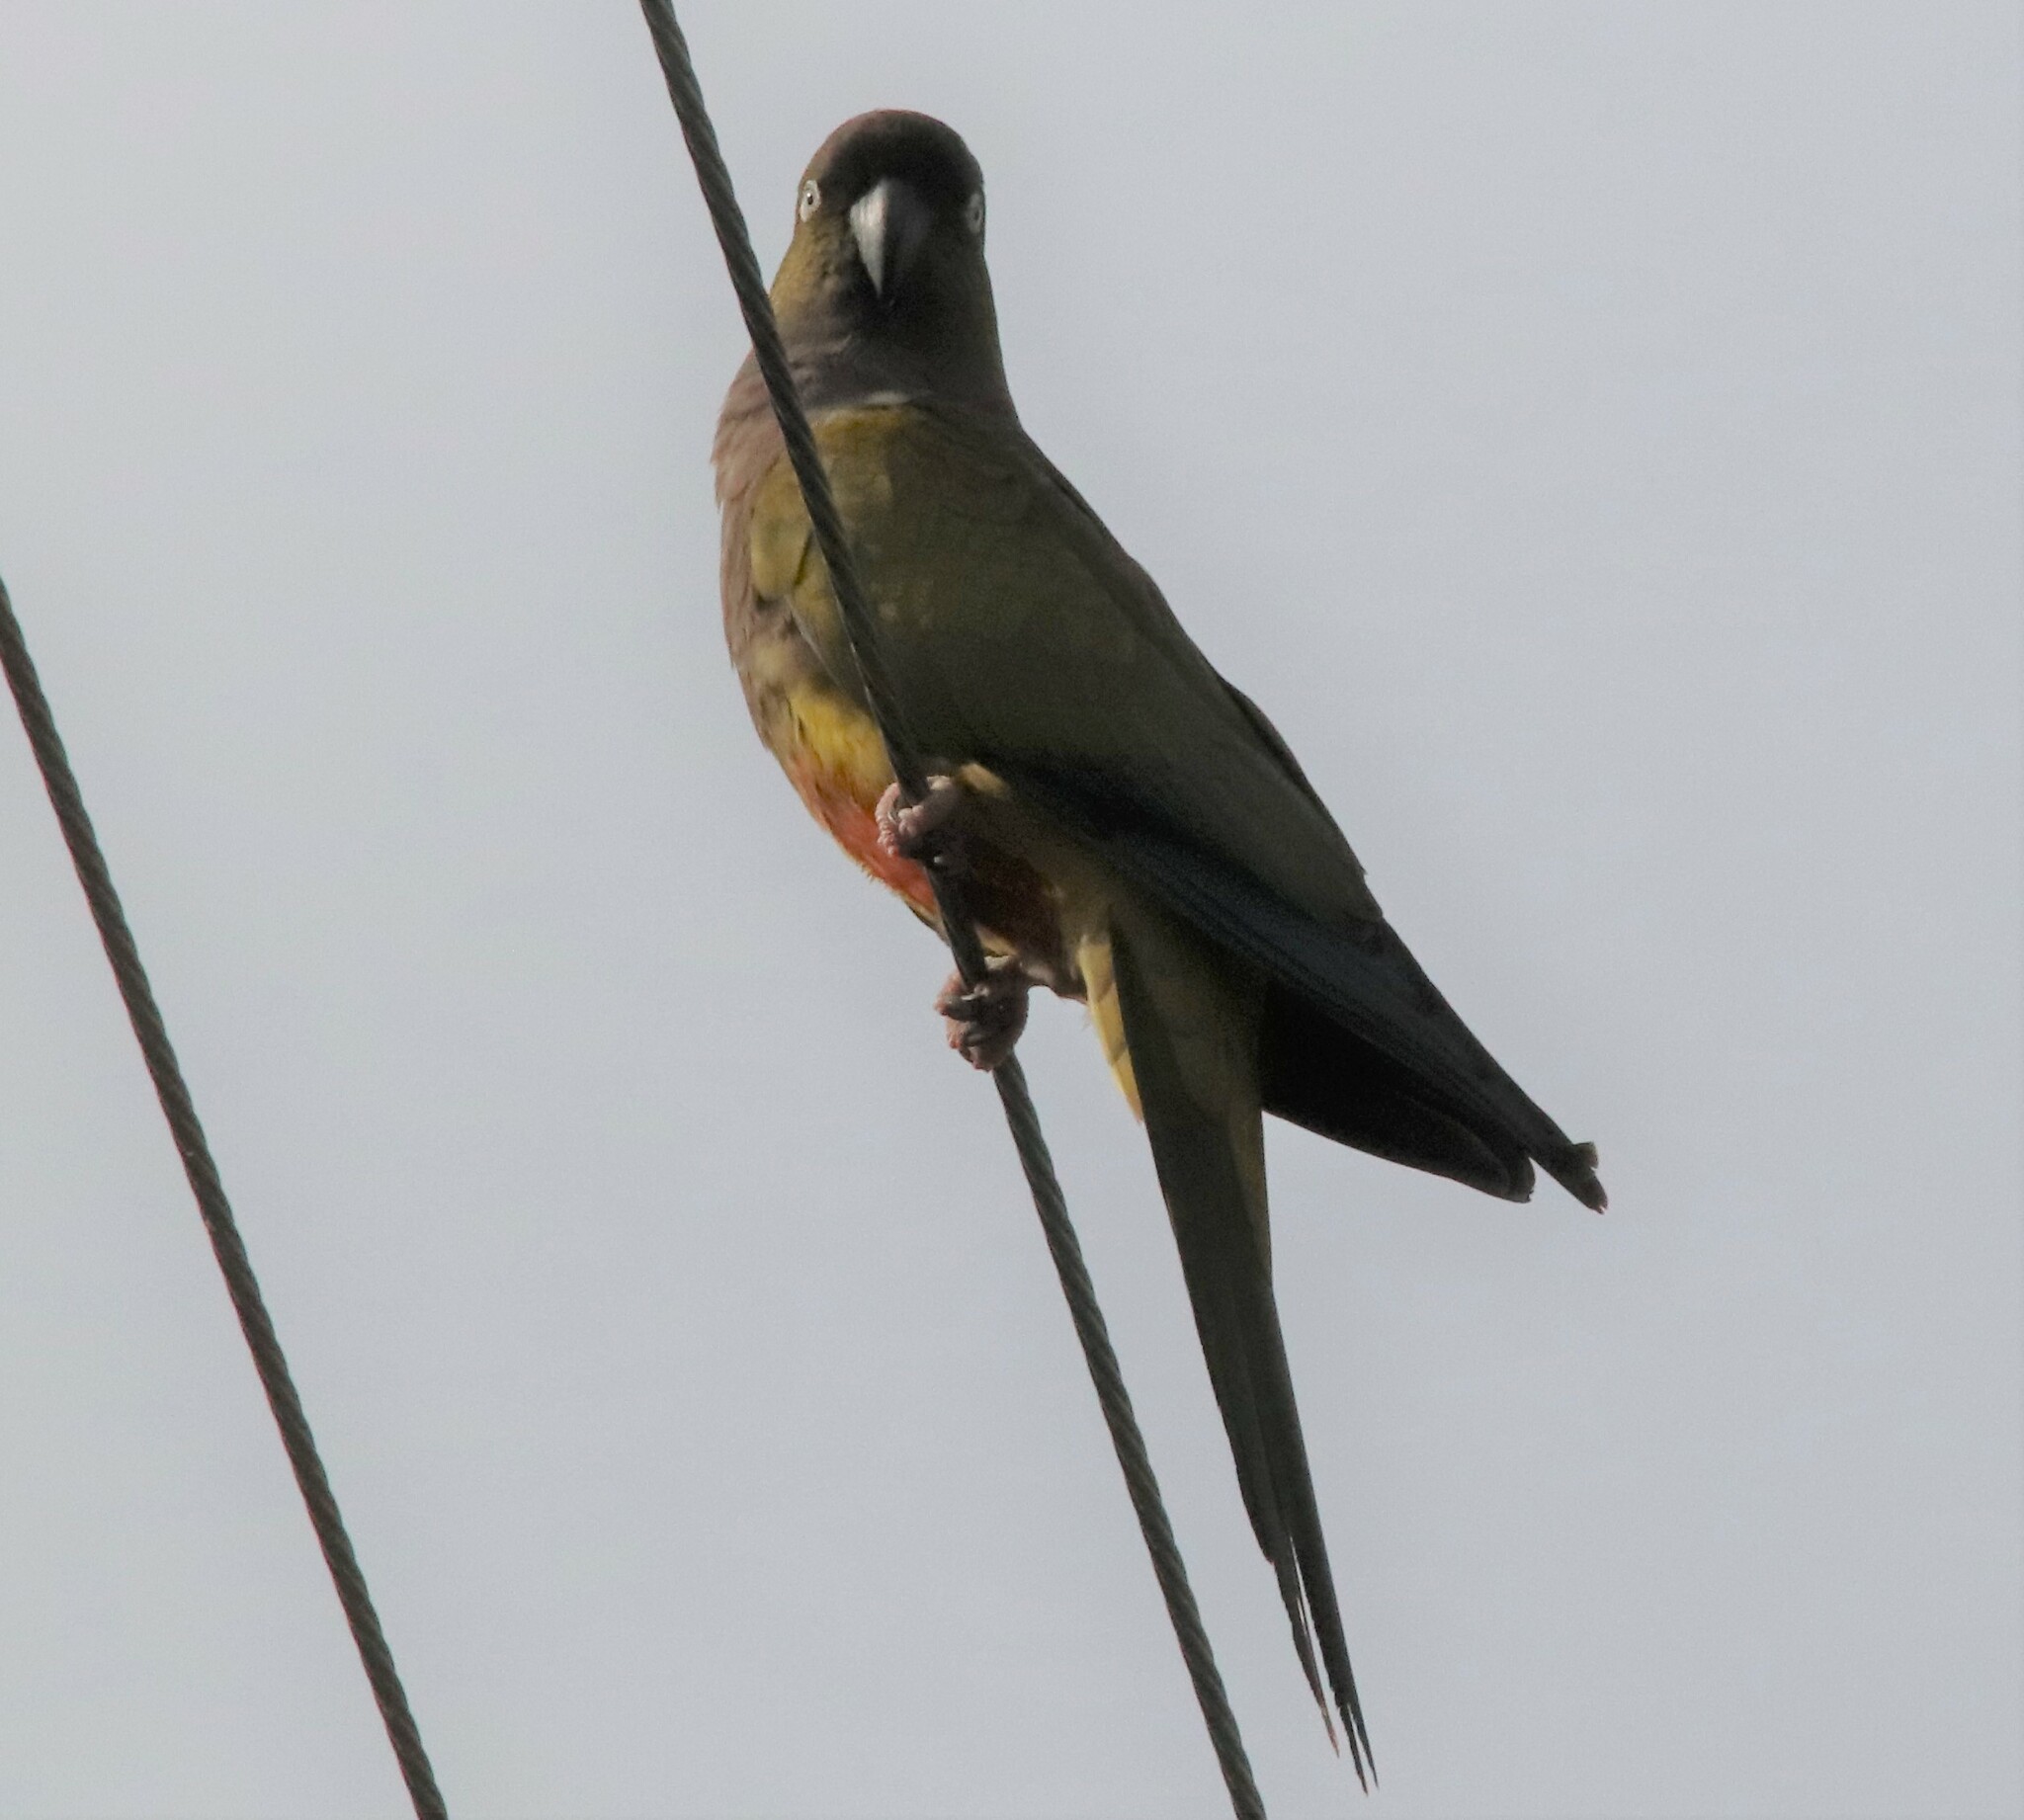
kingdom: Animalia
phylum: Chordata
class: Aves
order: Psittaciformes
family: Psittacidae
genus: Cyanoliseus
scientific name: Cyanoliseus patagonus
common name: Burrowing parrot
